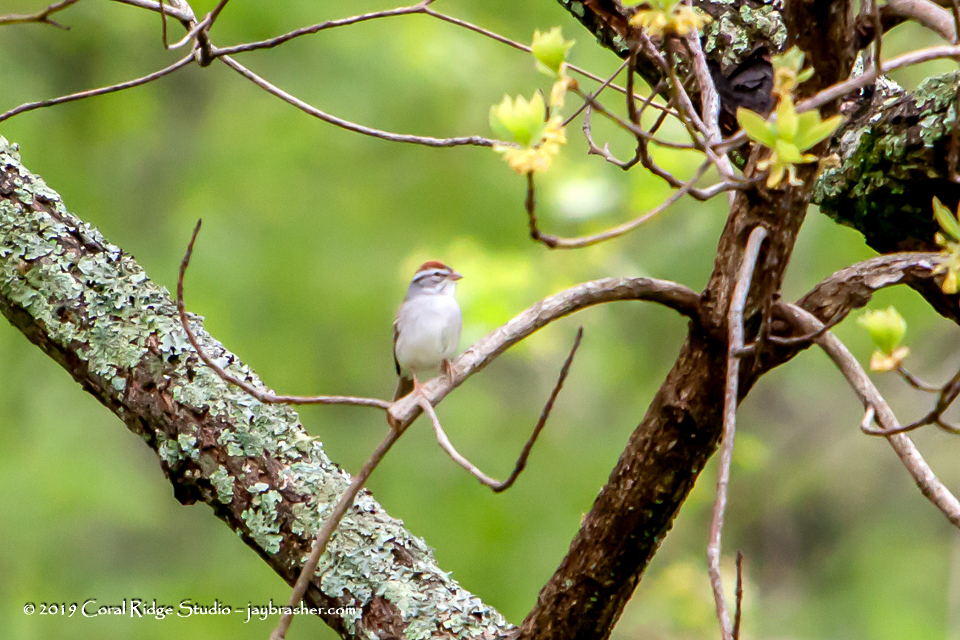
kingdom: Animalia
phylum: Chordata
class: Aves
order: Passeriformes
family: Passerellidae
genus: Spizella
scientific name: Spizella passerina
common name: Chipping sparrow
